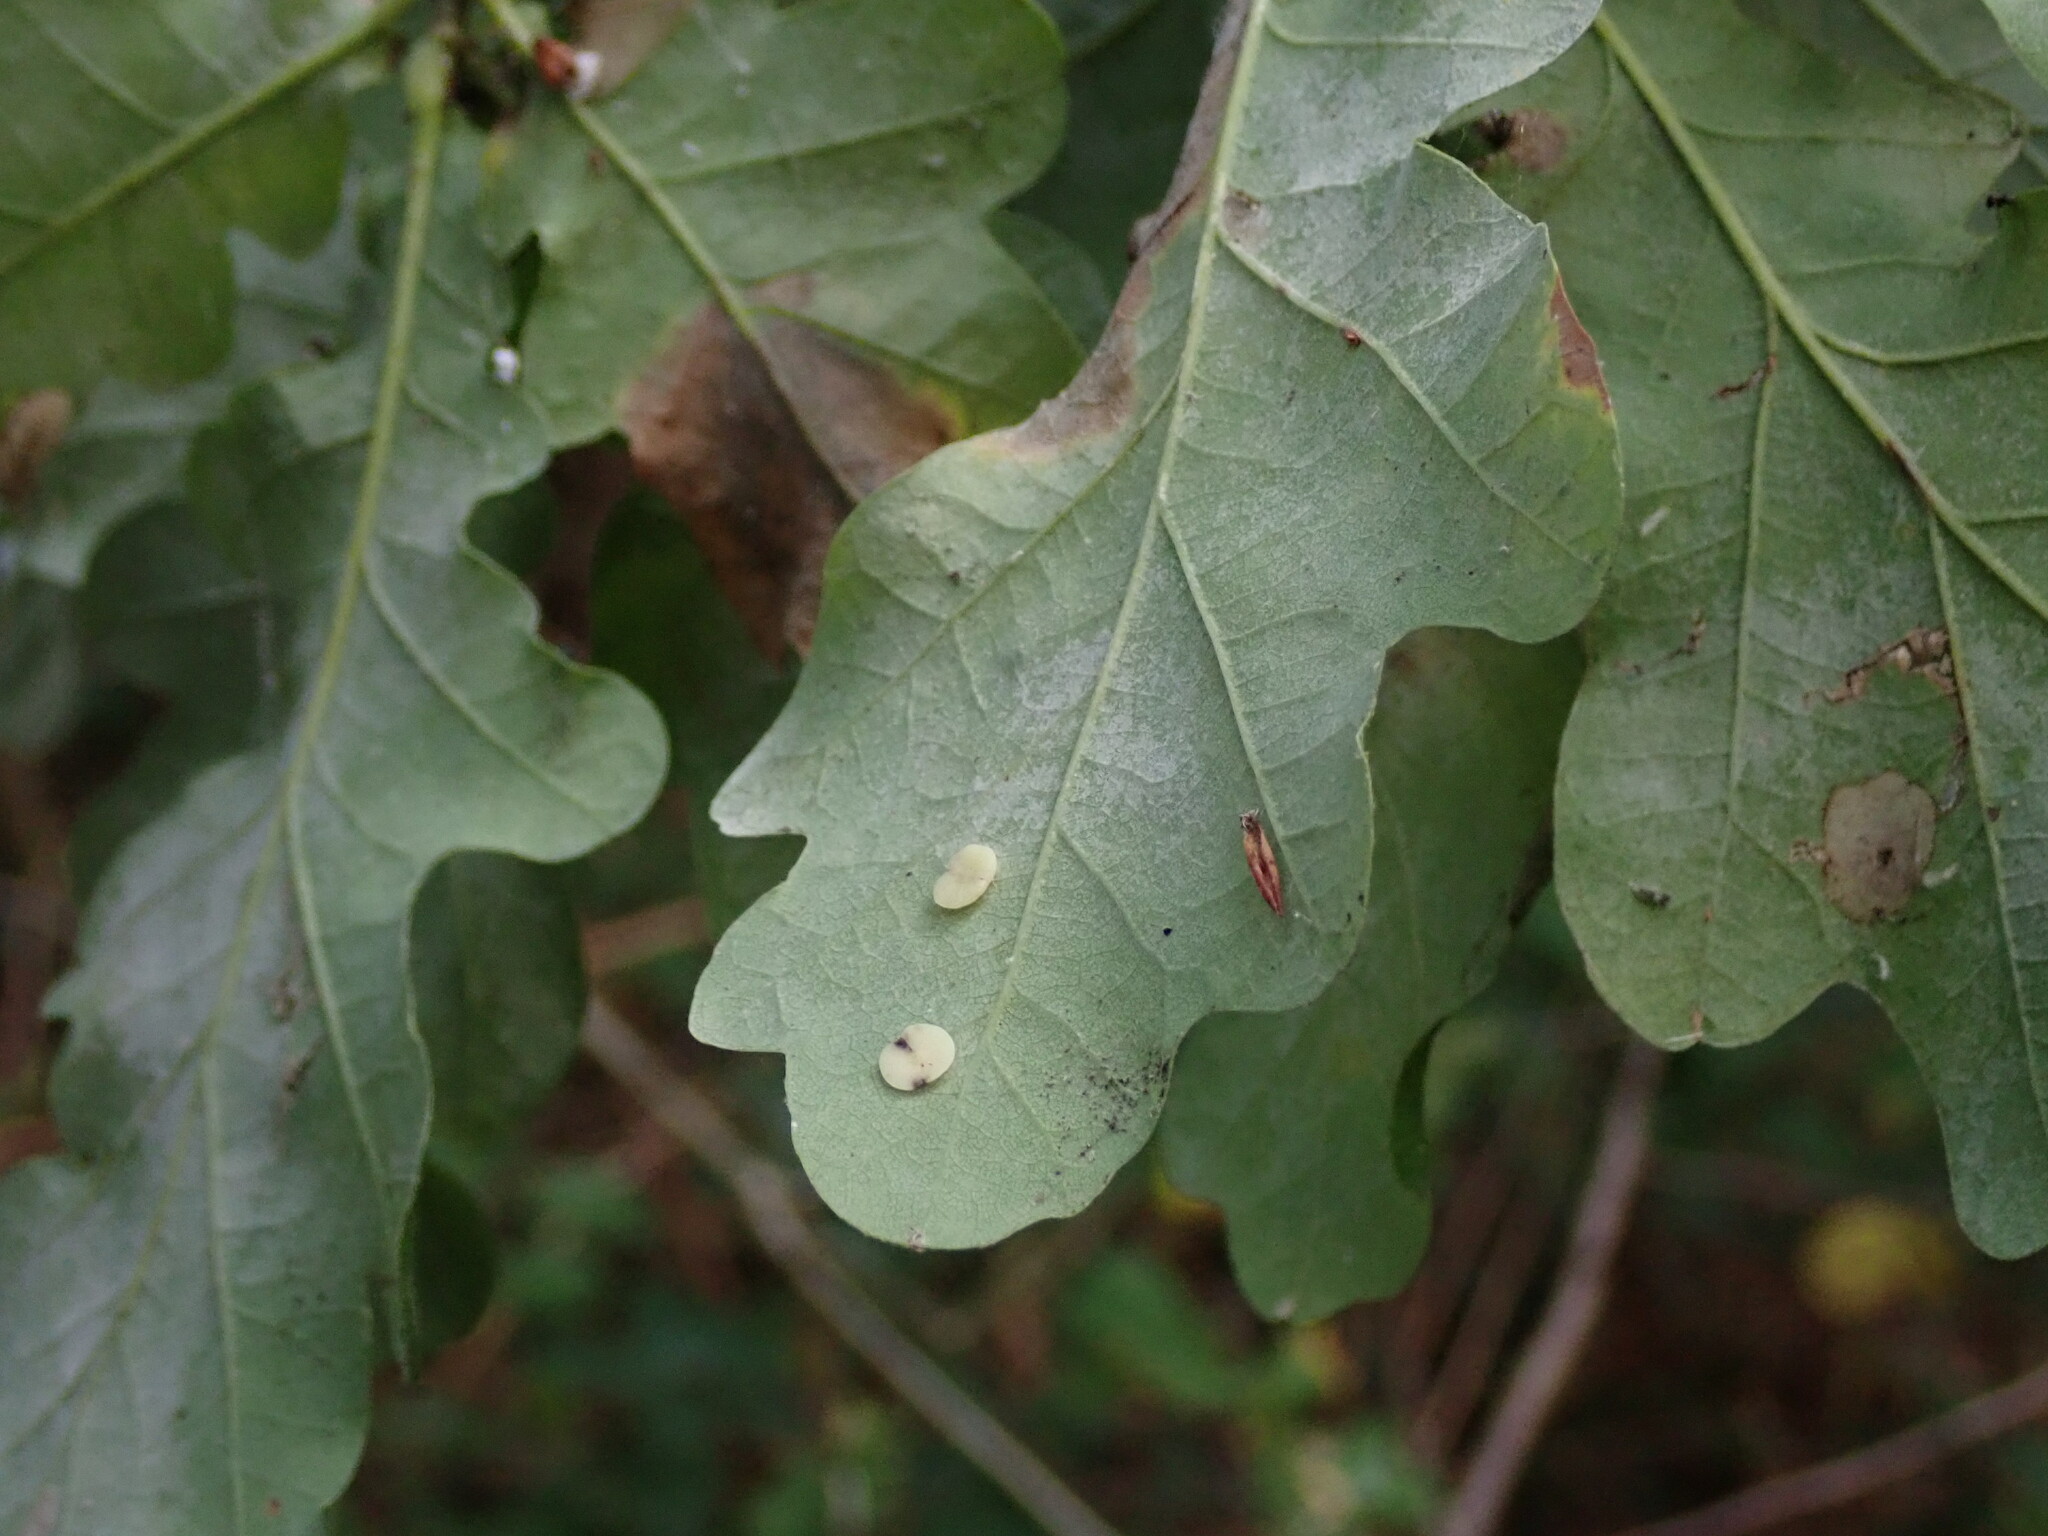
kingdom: Animalia
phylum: Arthropoda
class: Insecta
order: Hymenoptera
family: Cynipidae
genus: Neuroterus
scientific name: Neuroterus albipes
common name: Smooth spangle gall
